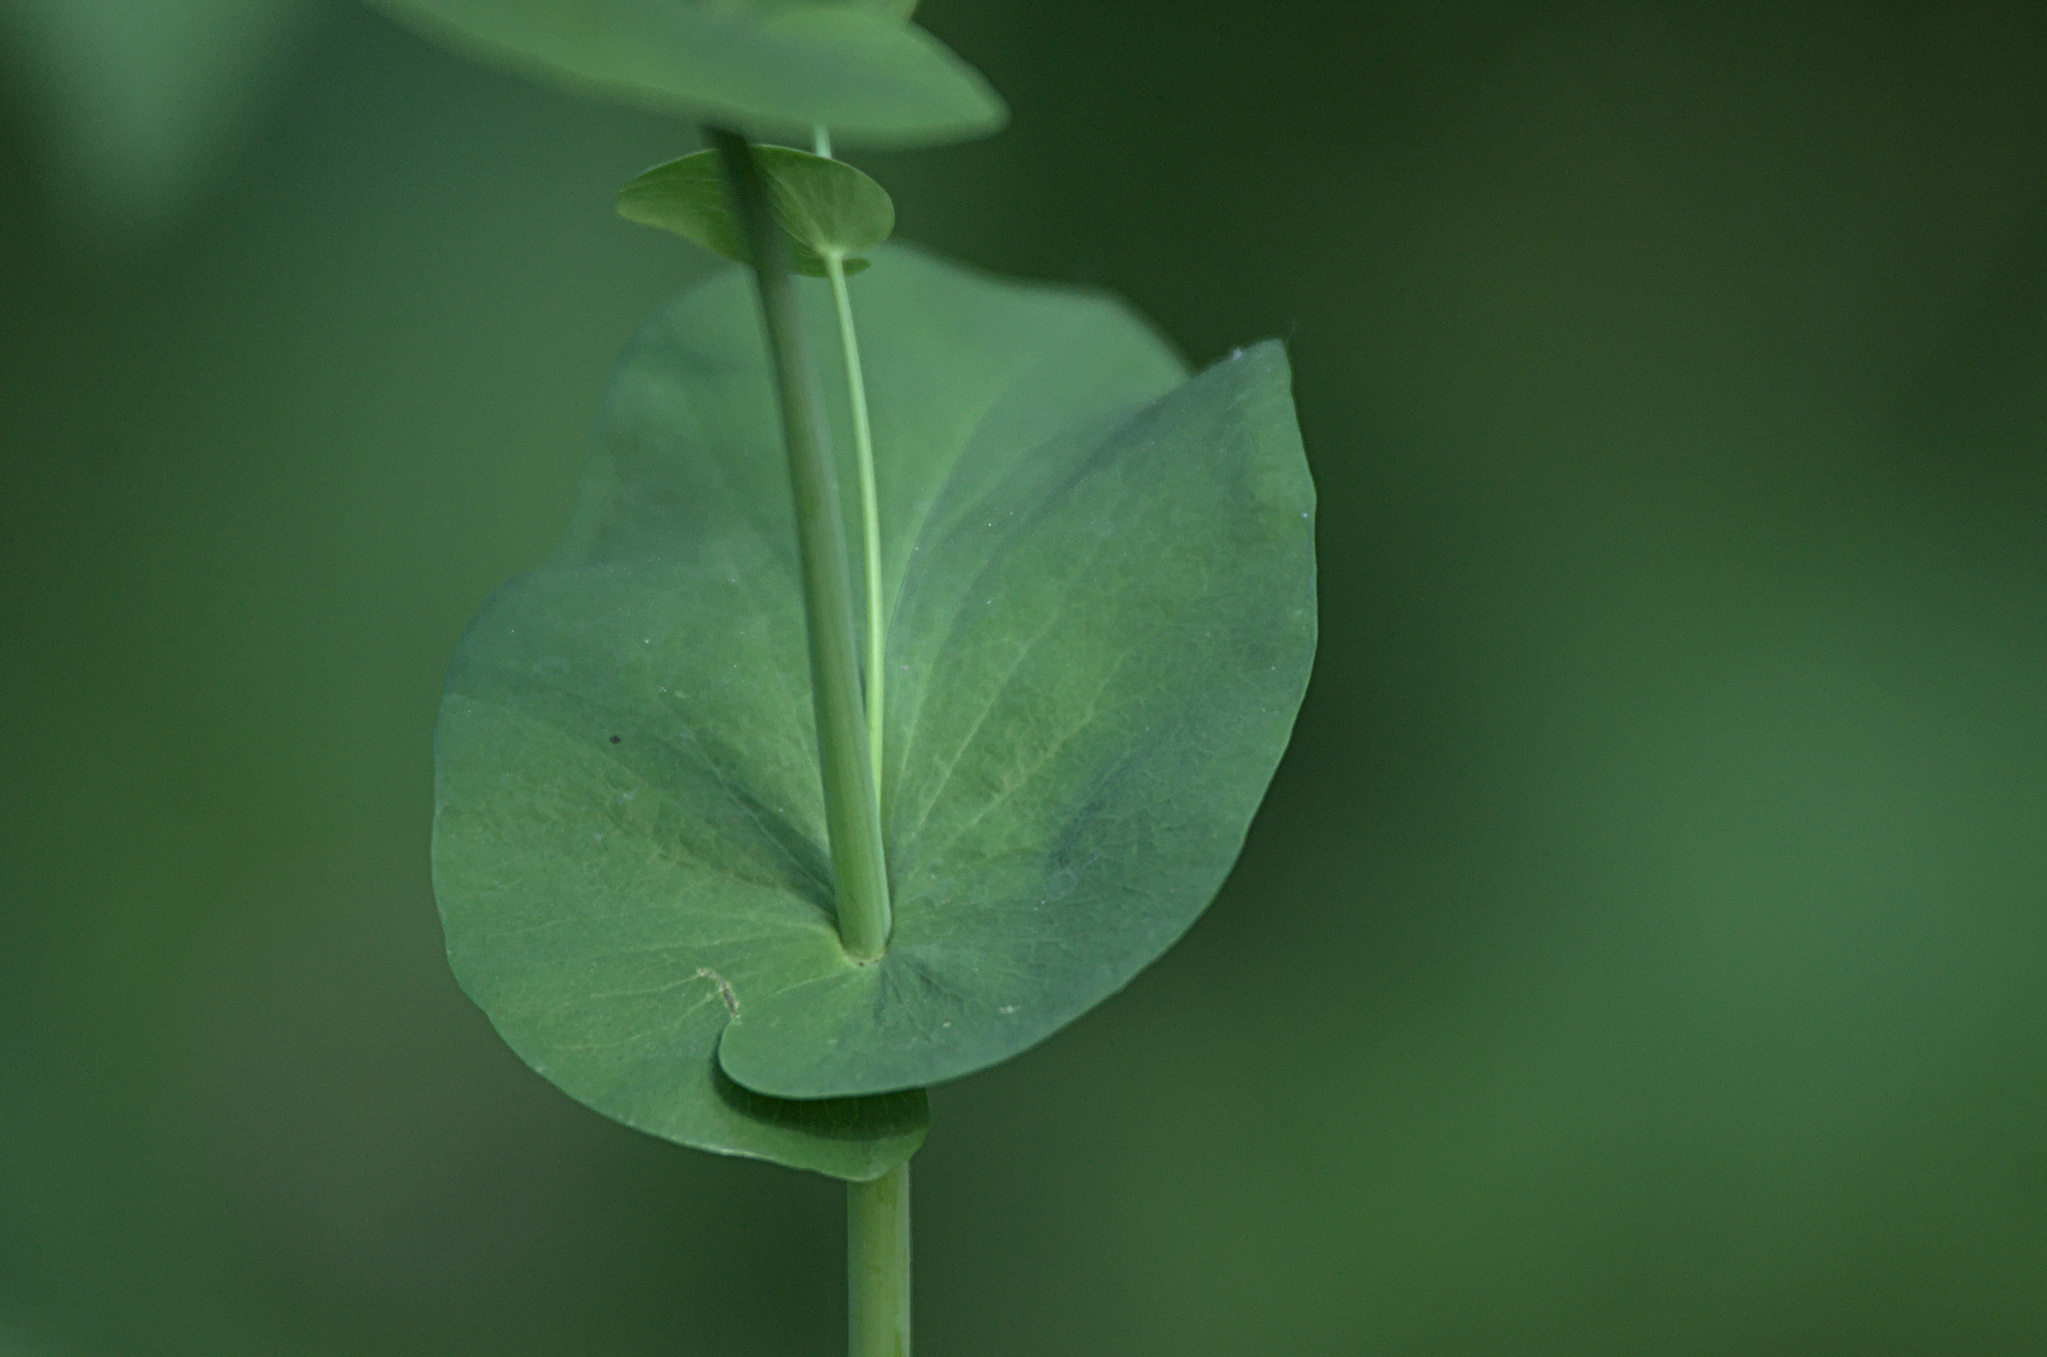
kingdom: Plantae
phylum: Tracheophyta
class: Magnoliopsida
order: Apiales
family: Apiaceae
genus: Bupleurum
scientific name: Bupleurum aureum
